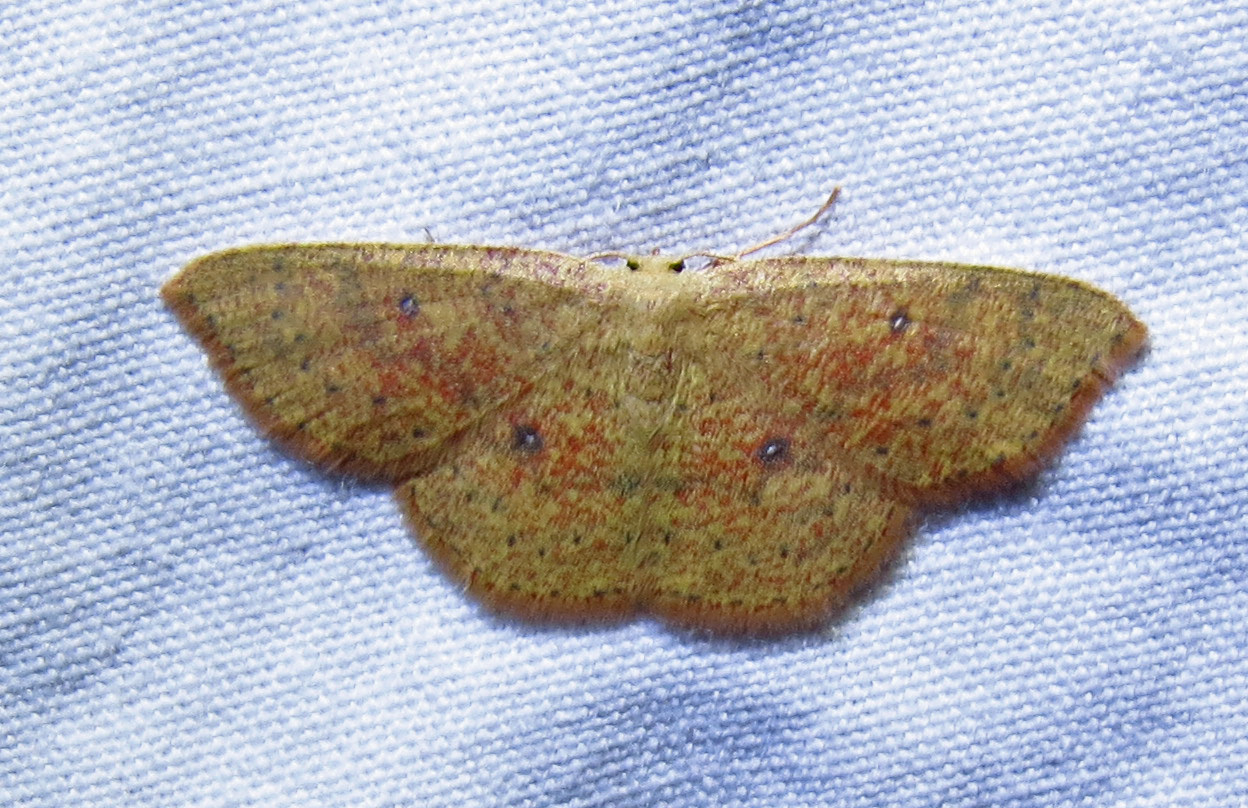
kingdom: Animalia
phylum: Arthropoda
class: Insecta
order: Lepidoptera
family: Geometridae
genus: Cyclophora
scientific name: Cyclophora packardi
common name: Packard's wave
